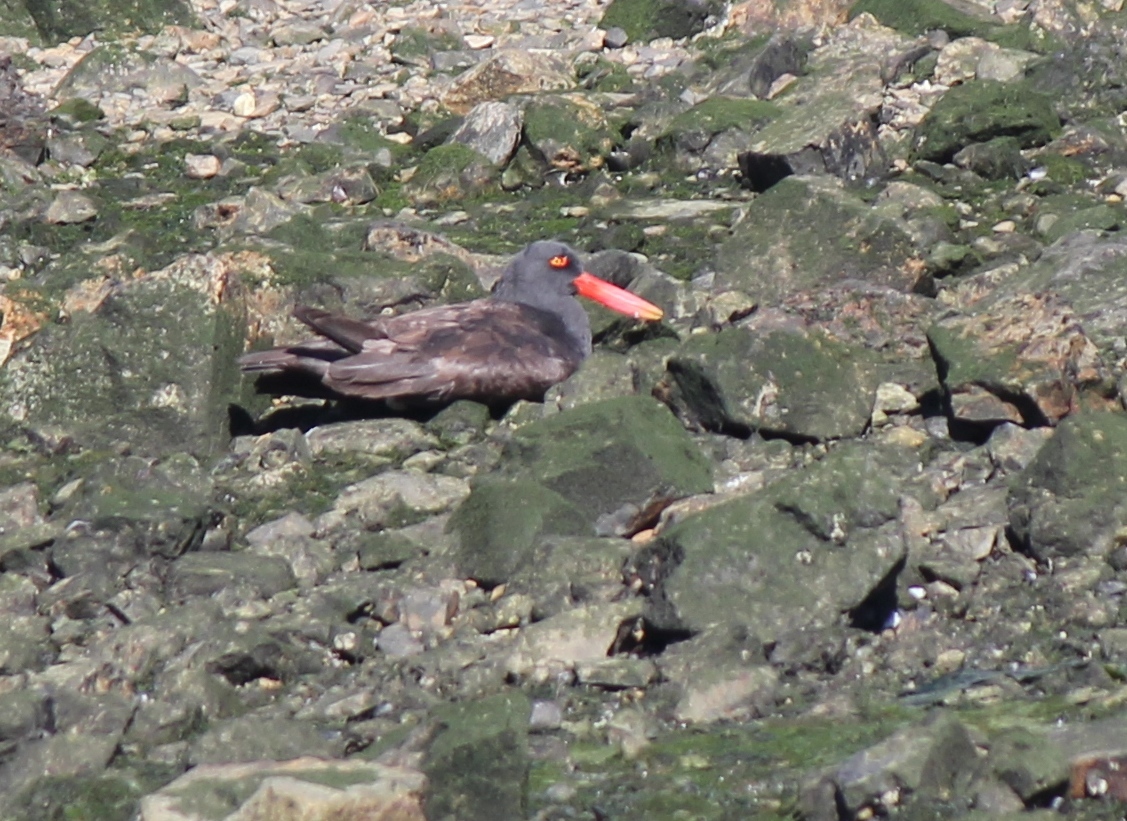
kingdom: Animalia
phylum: Chordata
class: Aves
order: Charadriiformes
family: Haematopodidae
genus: Haematopus
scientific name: Haematopus ater
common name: Blackish oystercatcher
